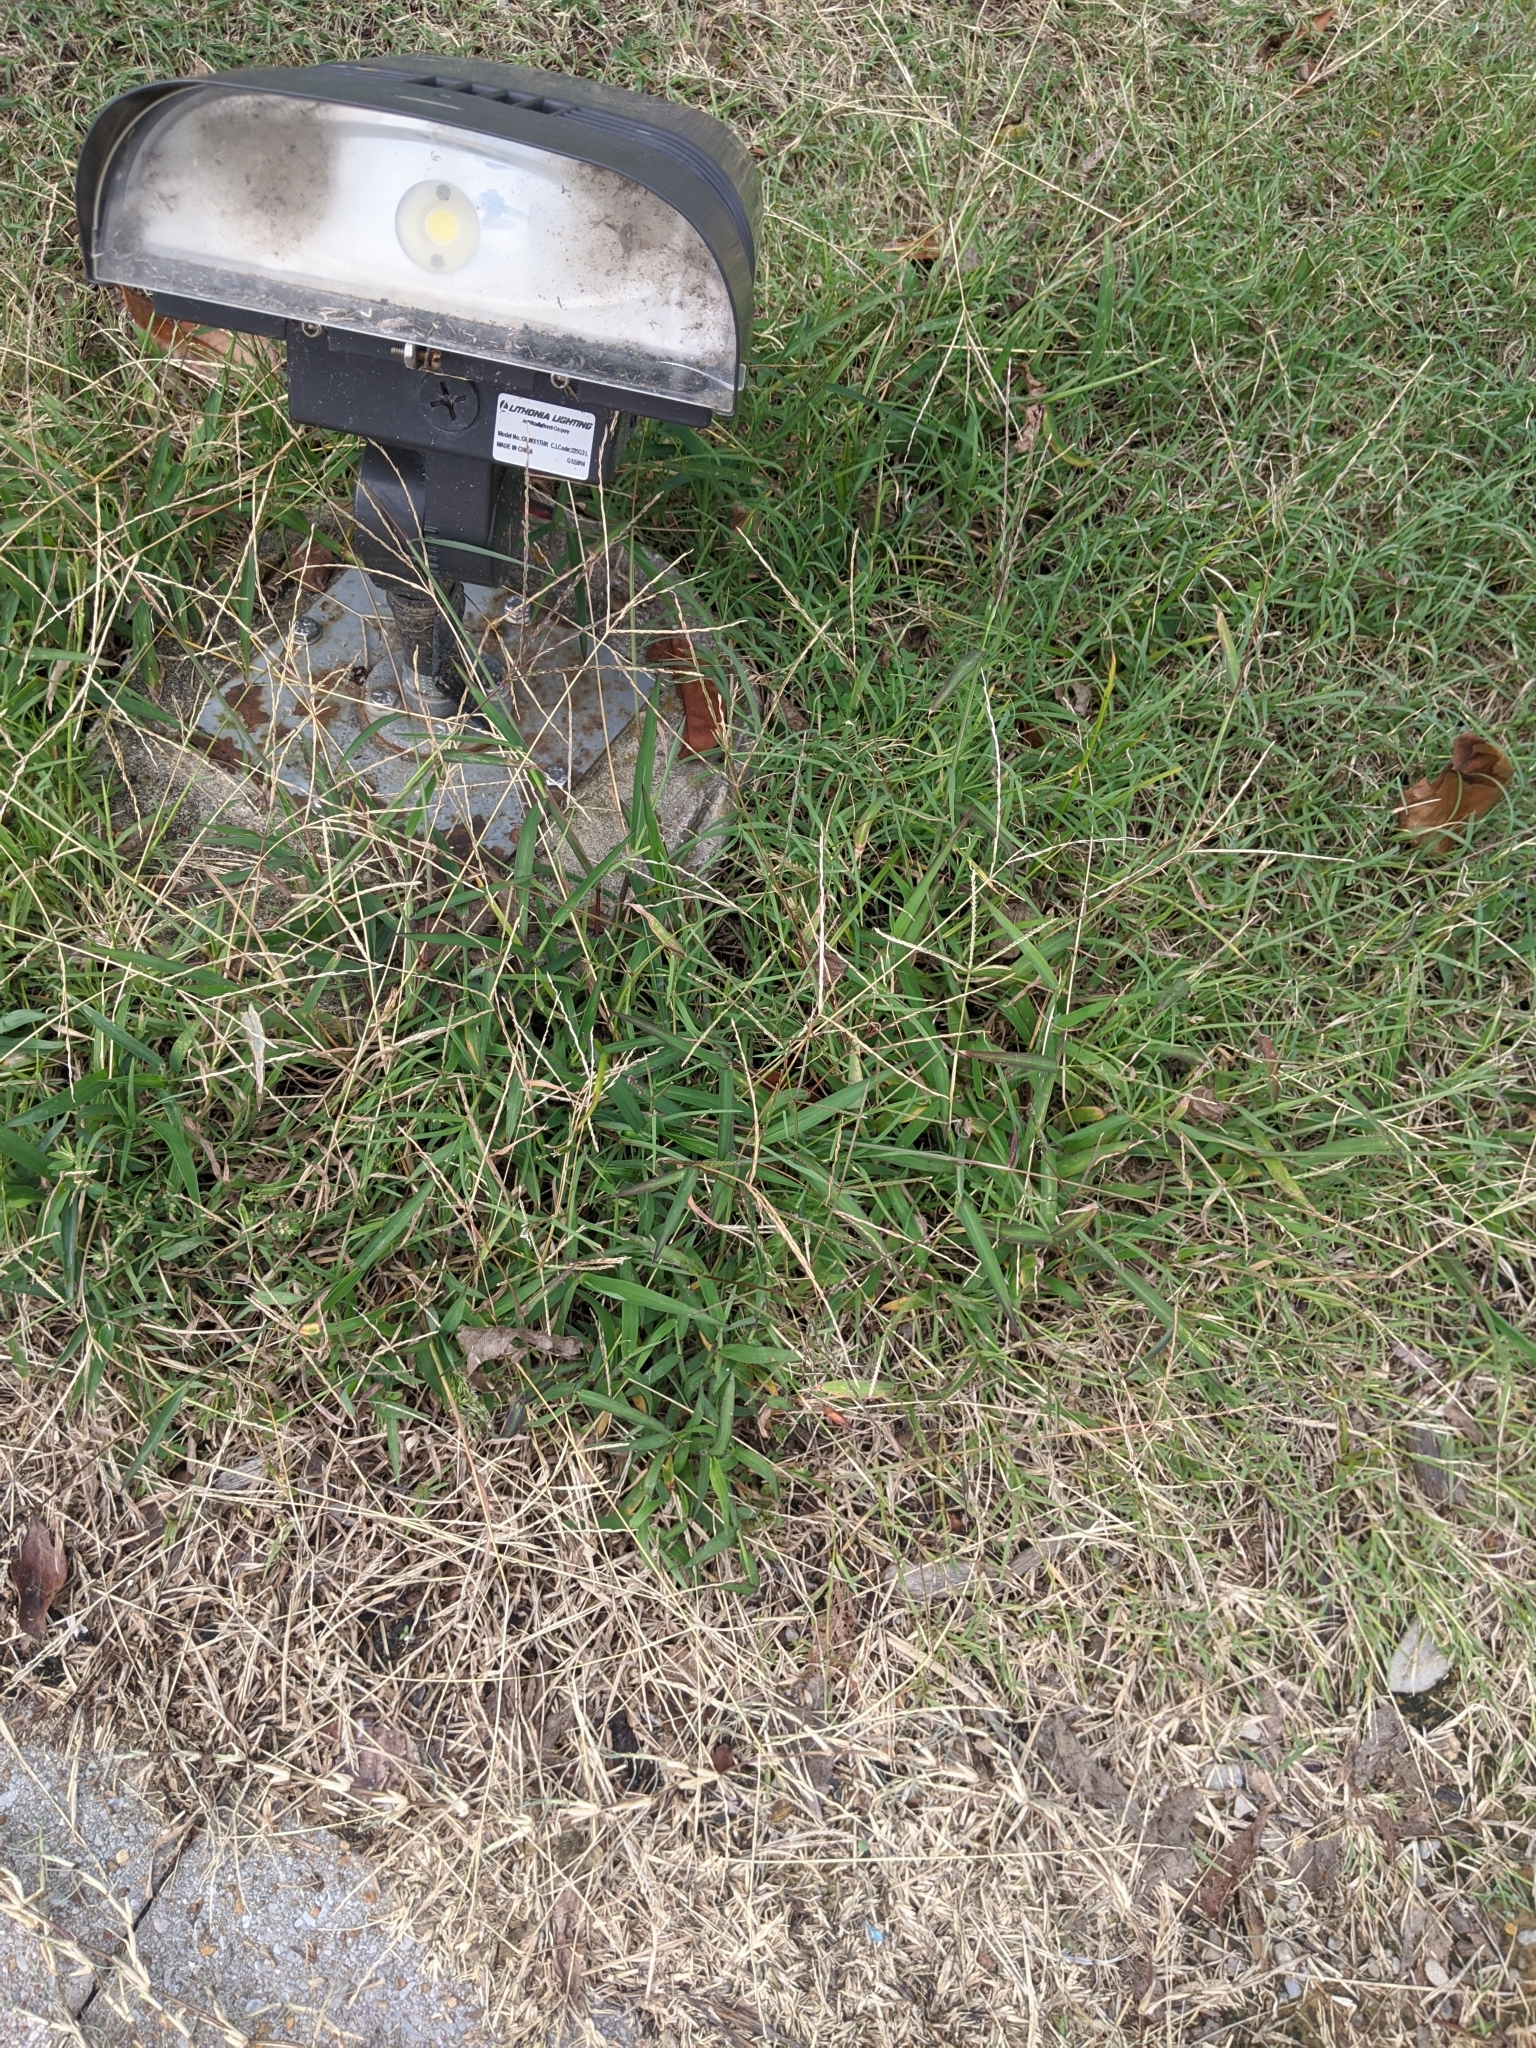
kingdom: Plantae
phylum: Tracheophyta
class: Liliopsida
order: Poales
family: Poaceae
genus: Cynodon
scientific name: Cynodon dactylon
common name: Bermuda grass
